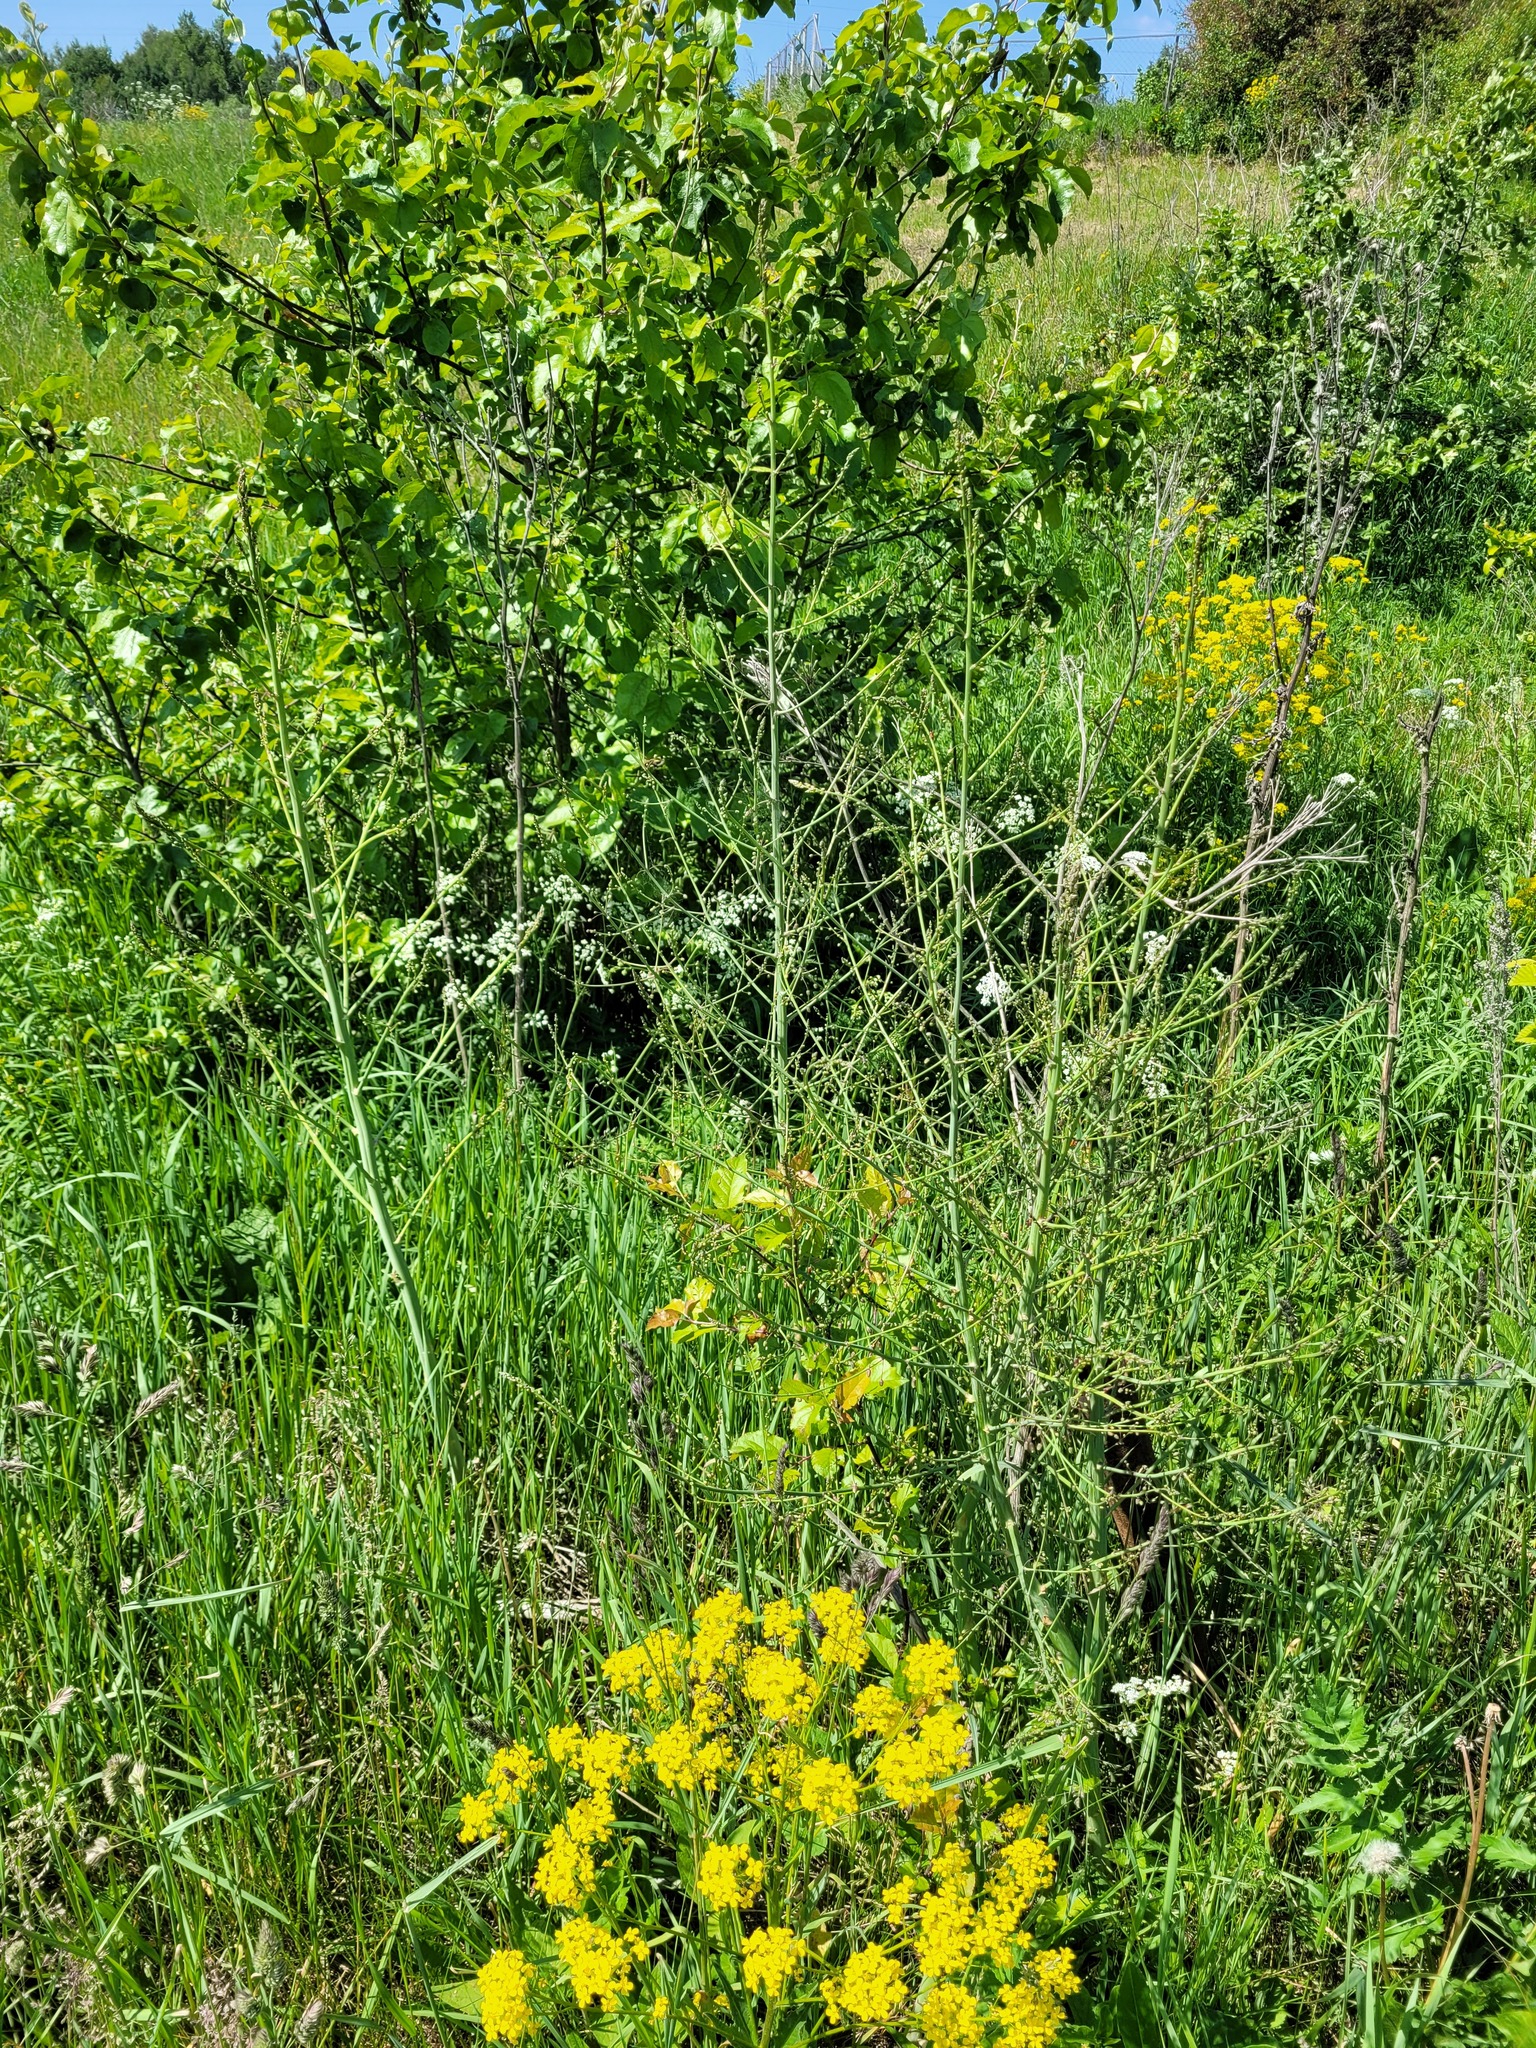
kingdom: Plantae
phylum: Tracheophyta
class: Liliopsida
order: Asparagales
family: Asparagaceae
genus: Asparagus
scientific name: Asparagus officinalis
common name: Garden asparagus
